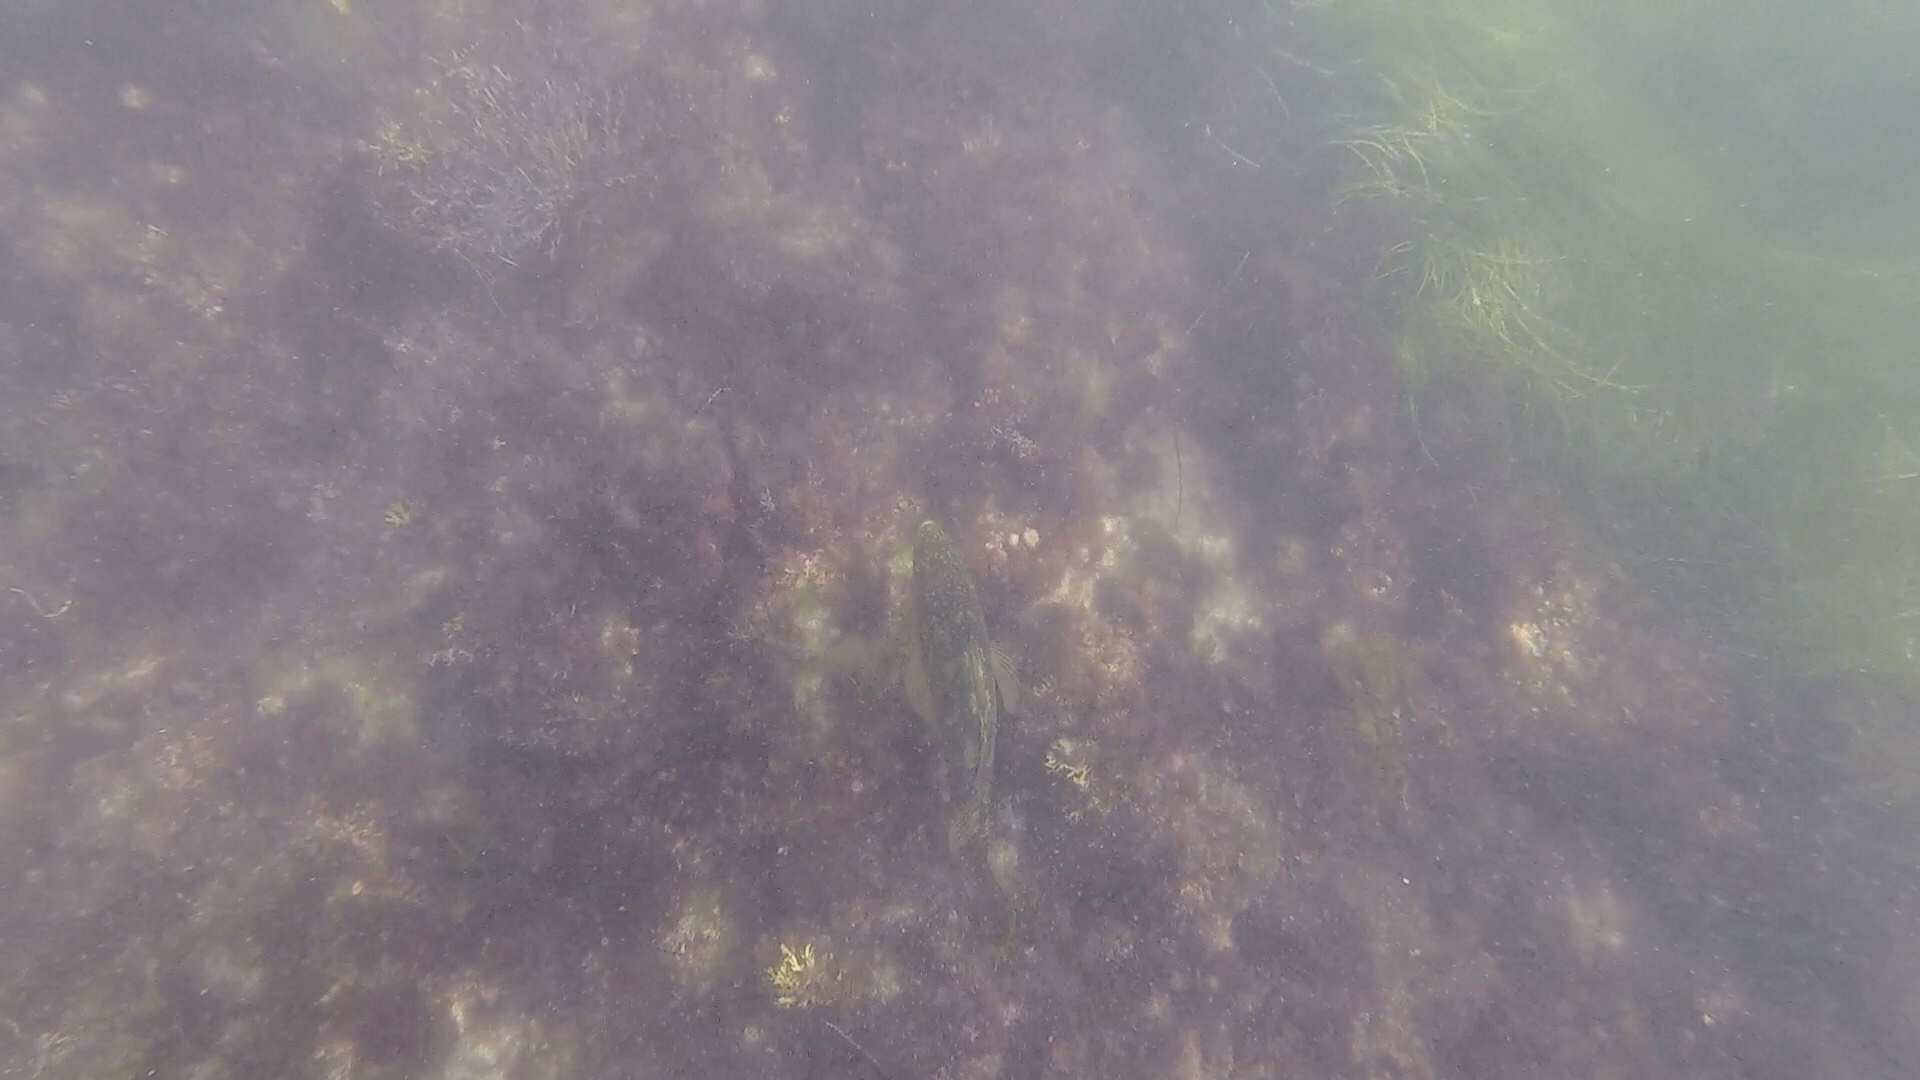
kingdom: Animalia
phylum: Chordata
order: Perciformes
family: Serranidae
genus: Paralabrax
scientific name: Paralabrax clathratus
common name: Kelp bass
